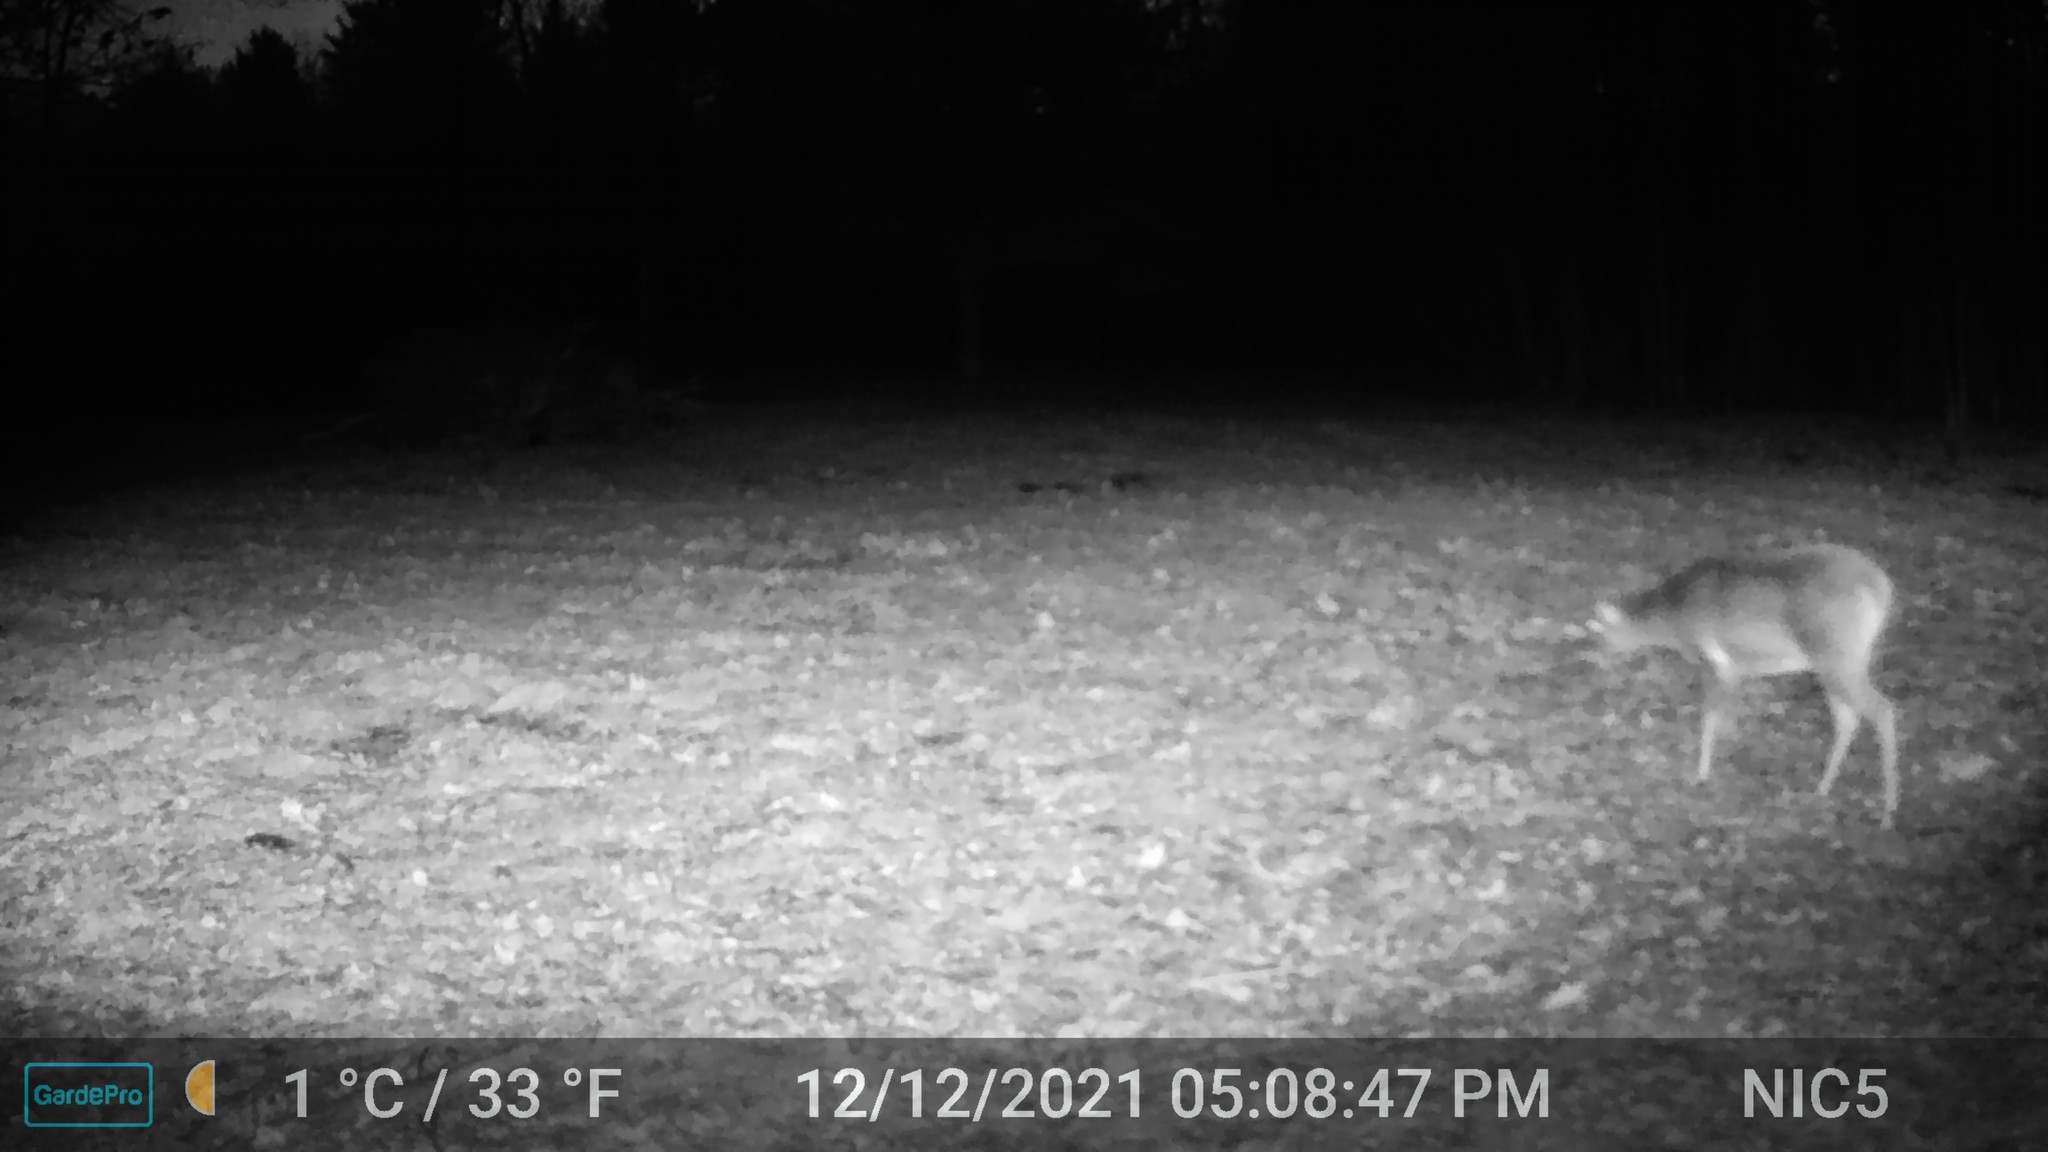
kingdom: Animalia
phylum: Chordata
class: Mammalia
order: Artiodactyla
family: Cervidae
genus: Odocoileus
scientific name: Odocoileus virginianus
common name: White-tailed deer
